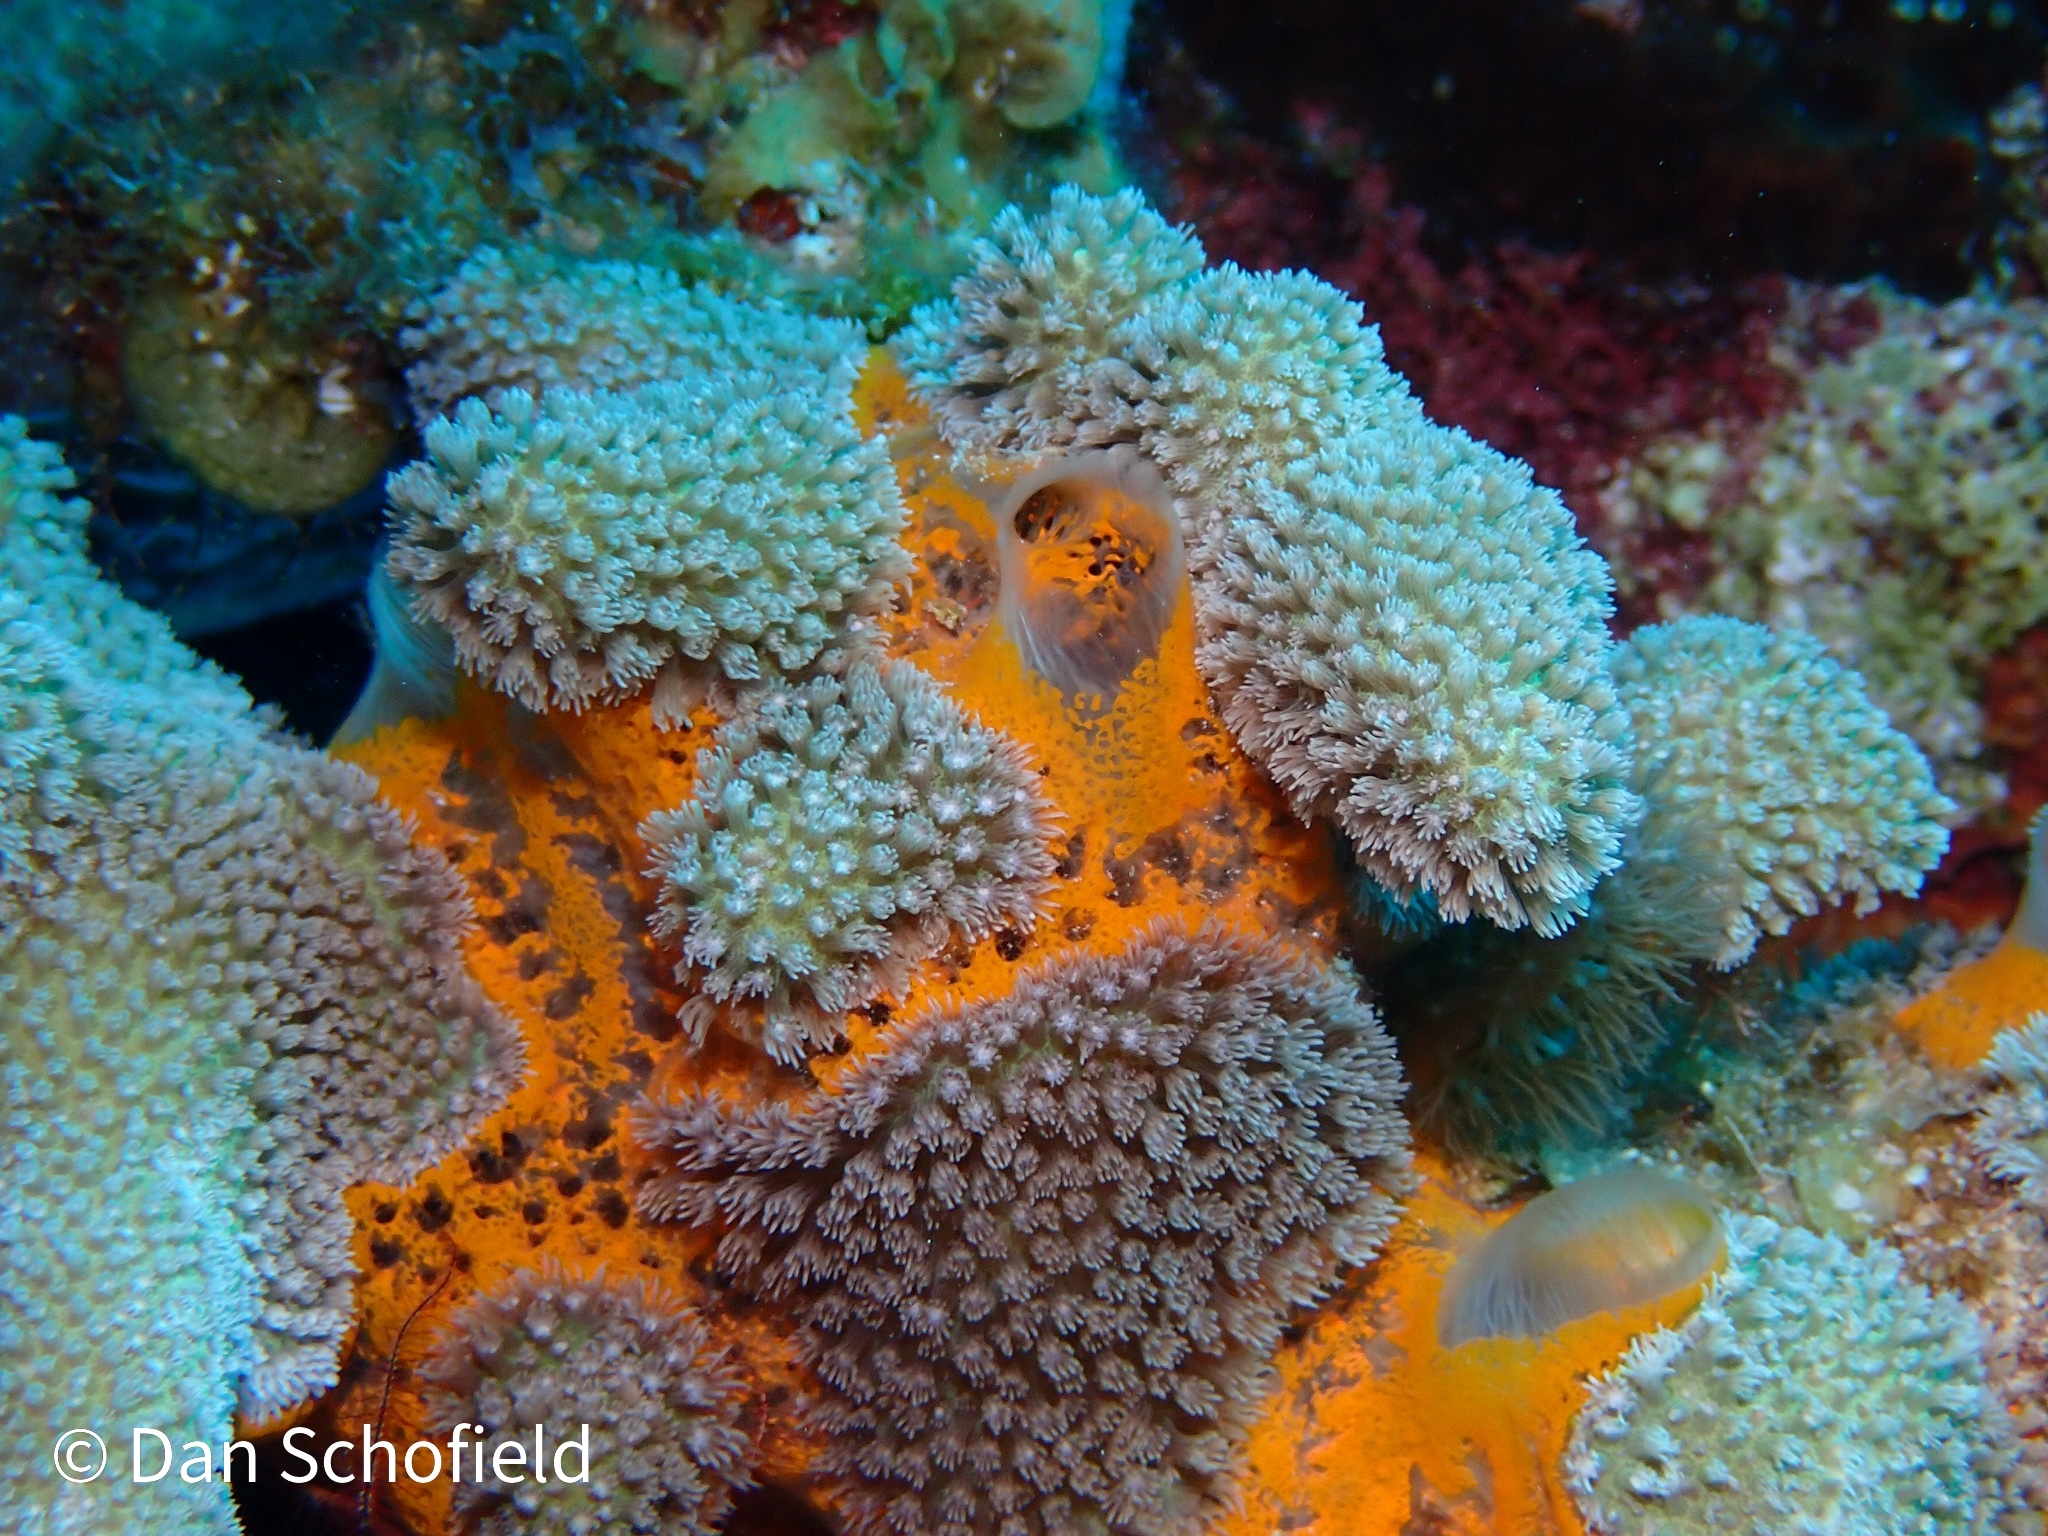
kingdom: Animalia
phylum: Porifera
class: Demospongiae
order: Poecilosclerida
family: Mycalidae
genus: Mycale
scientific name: Mycale laevis
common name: Orange icing sponge
